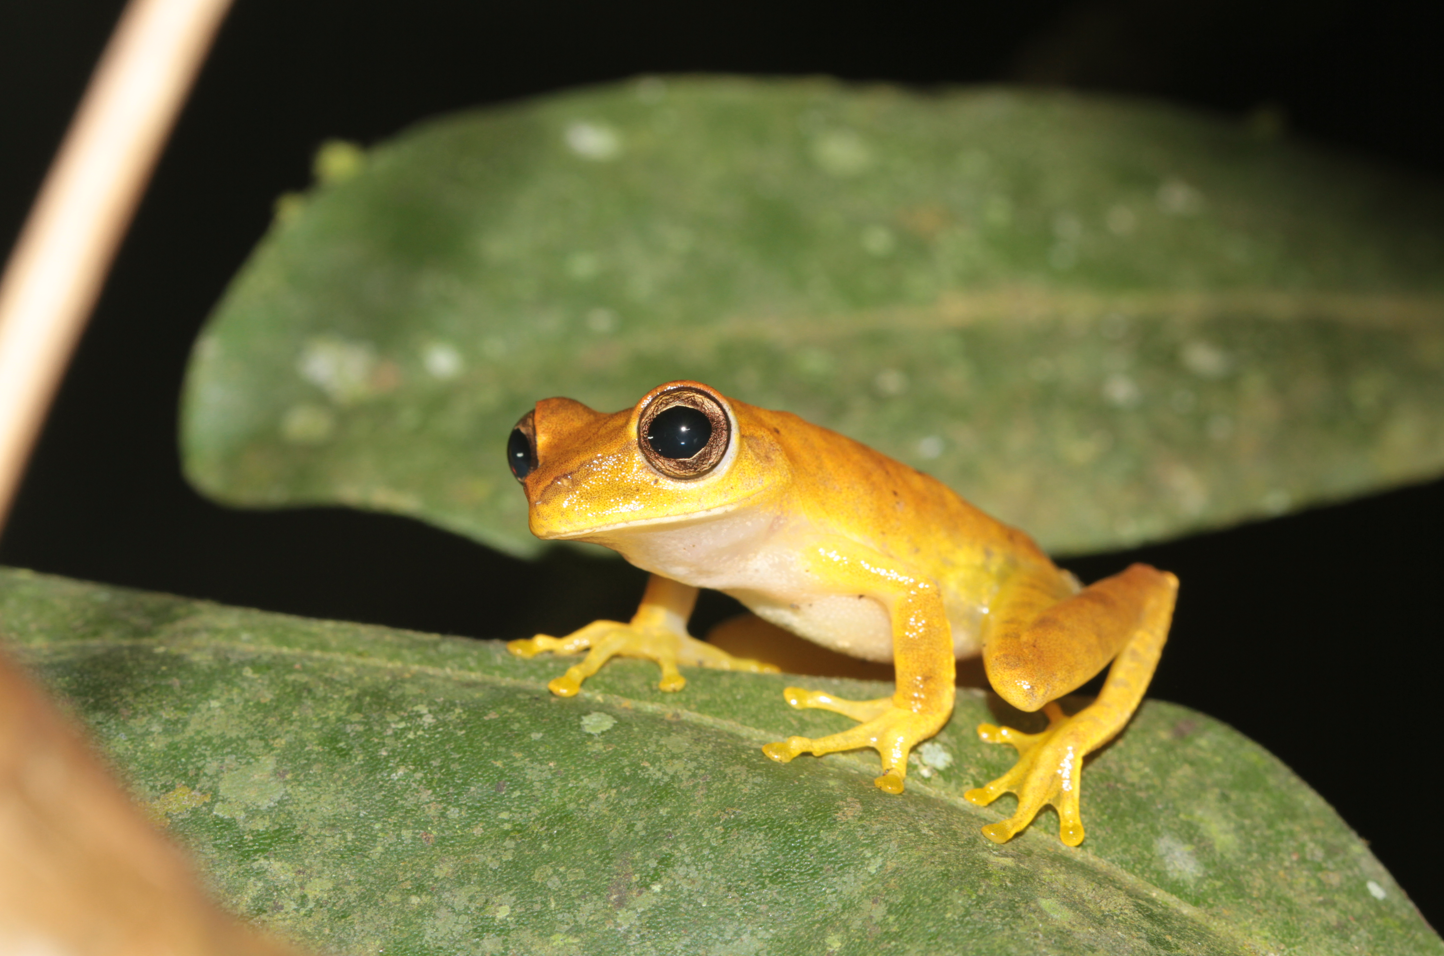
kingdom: Animalia
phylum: Chordata
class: Amphibia
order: Anura
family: Hylidae
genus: Boana
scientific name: Boana courtoisae
